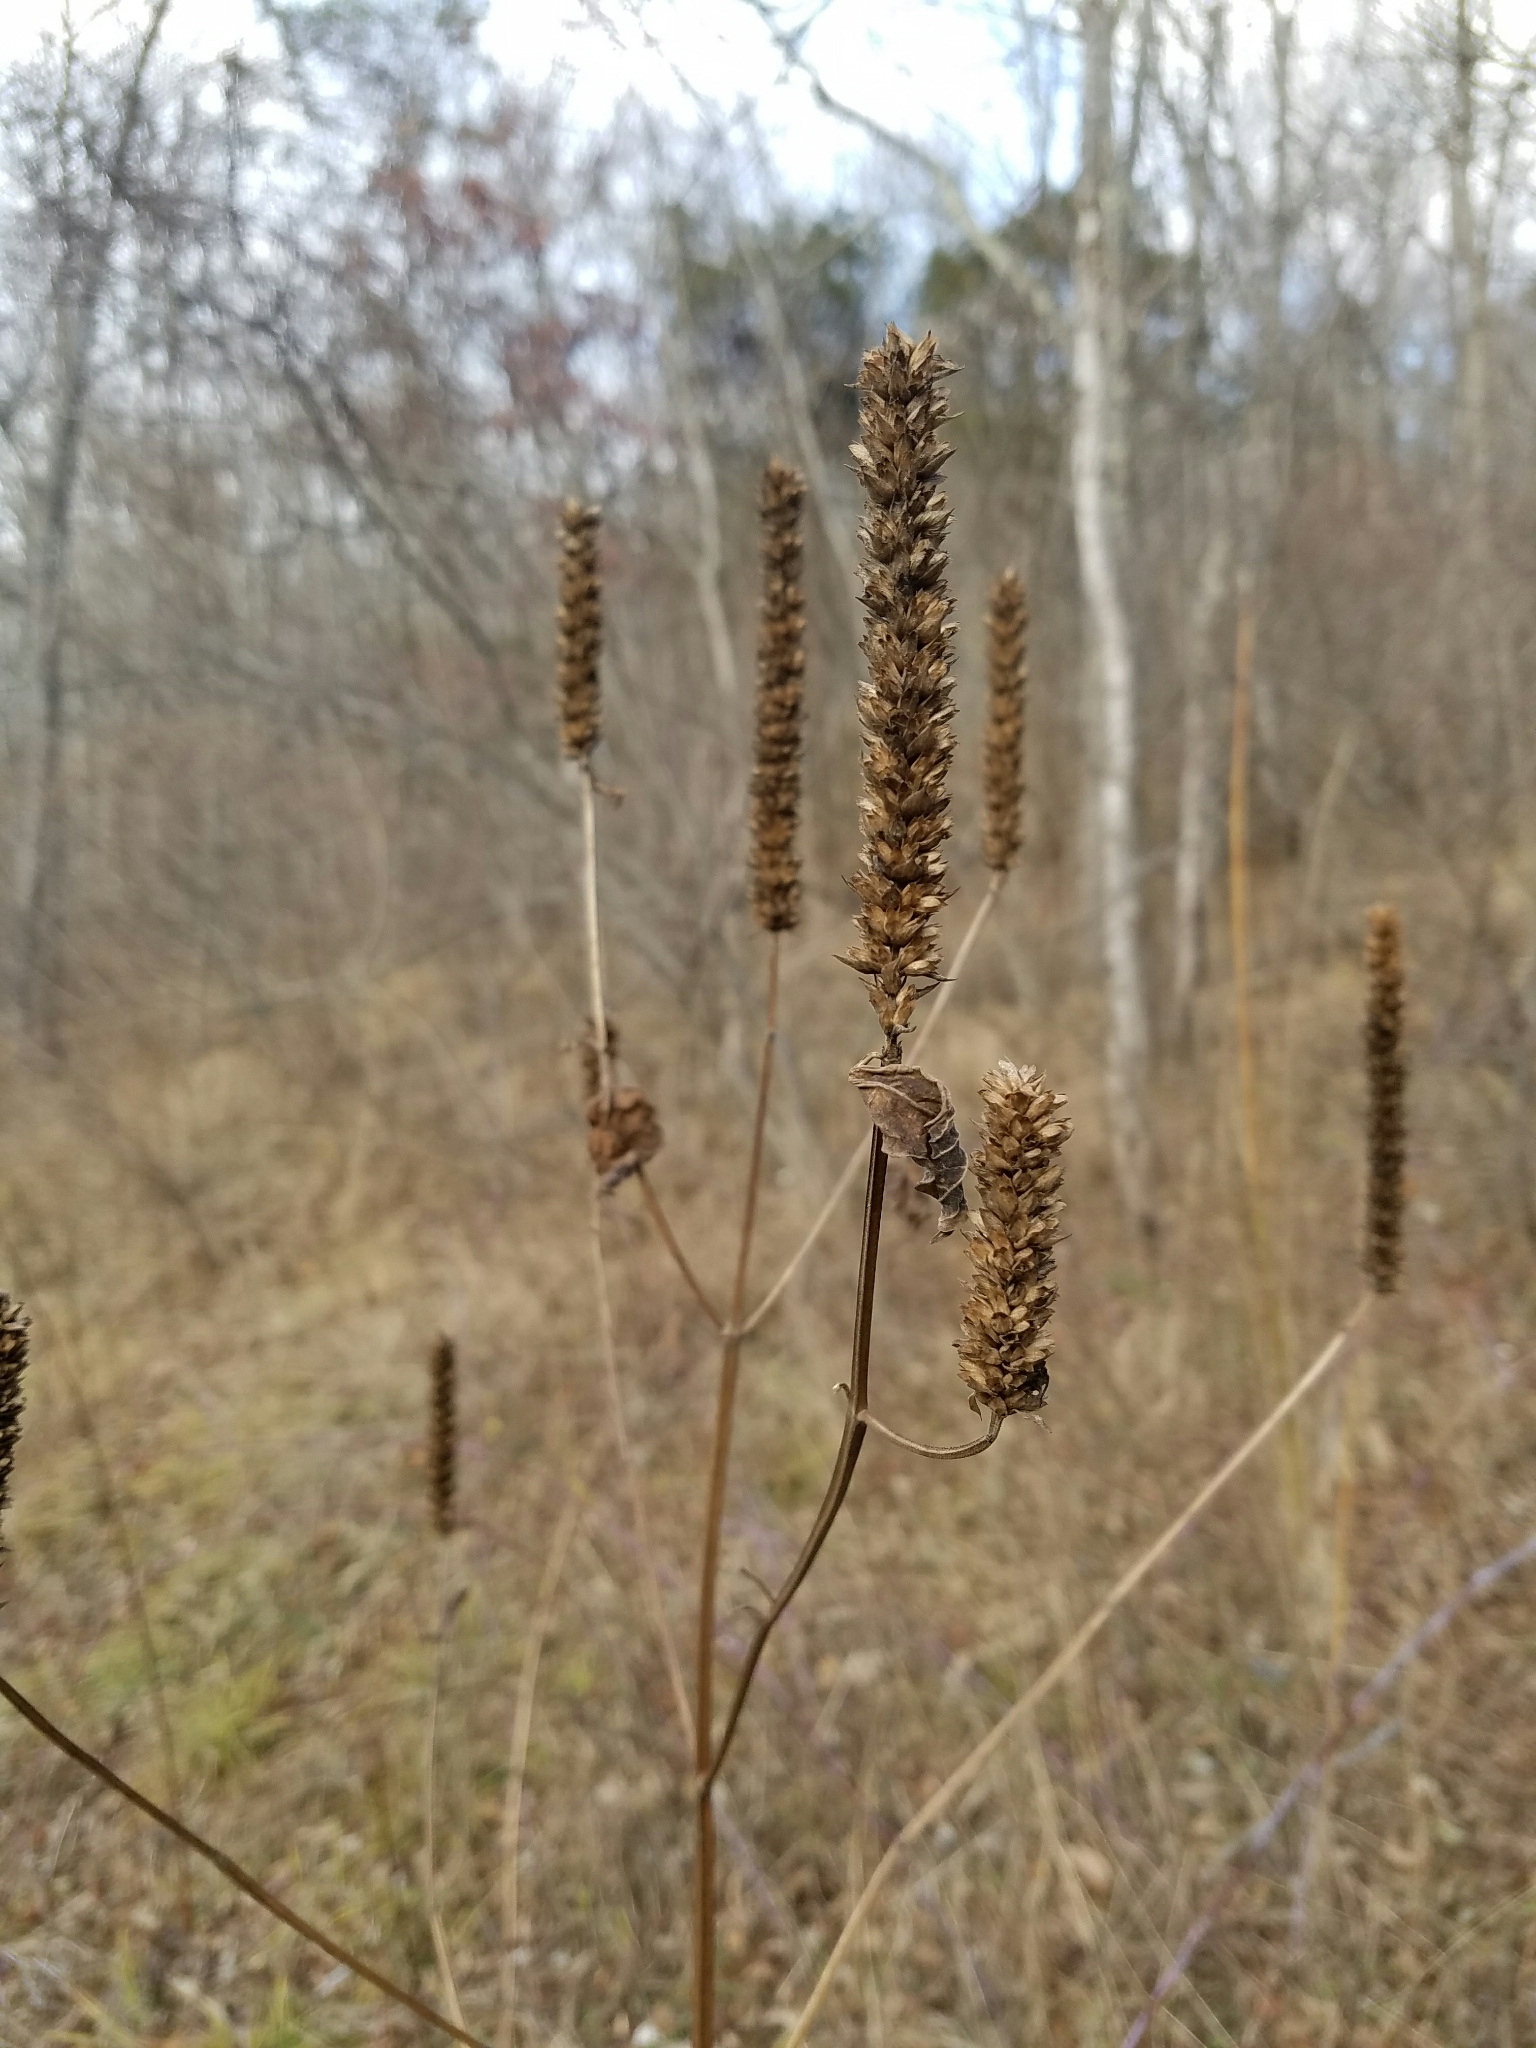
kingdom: Plantae
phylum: Tracheophyta
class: Magnoliopsida
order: Lamiales
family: Lamiaceae
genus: Agastache
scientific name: Agastache nepetoides
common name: Catnip giant hyssop
